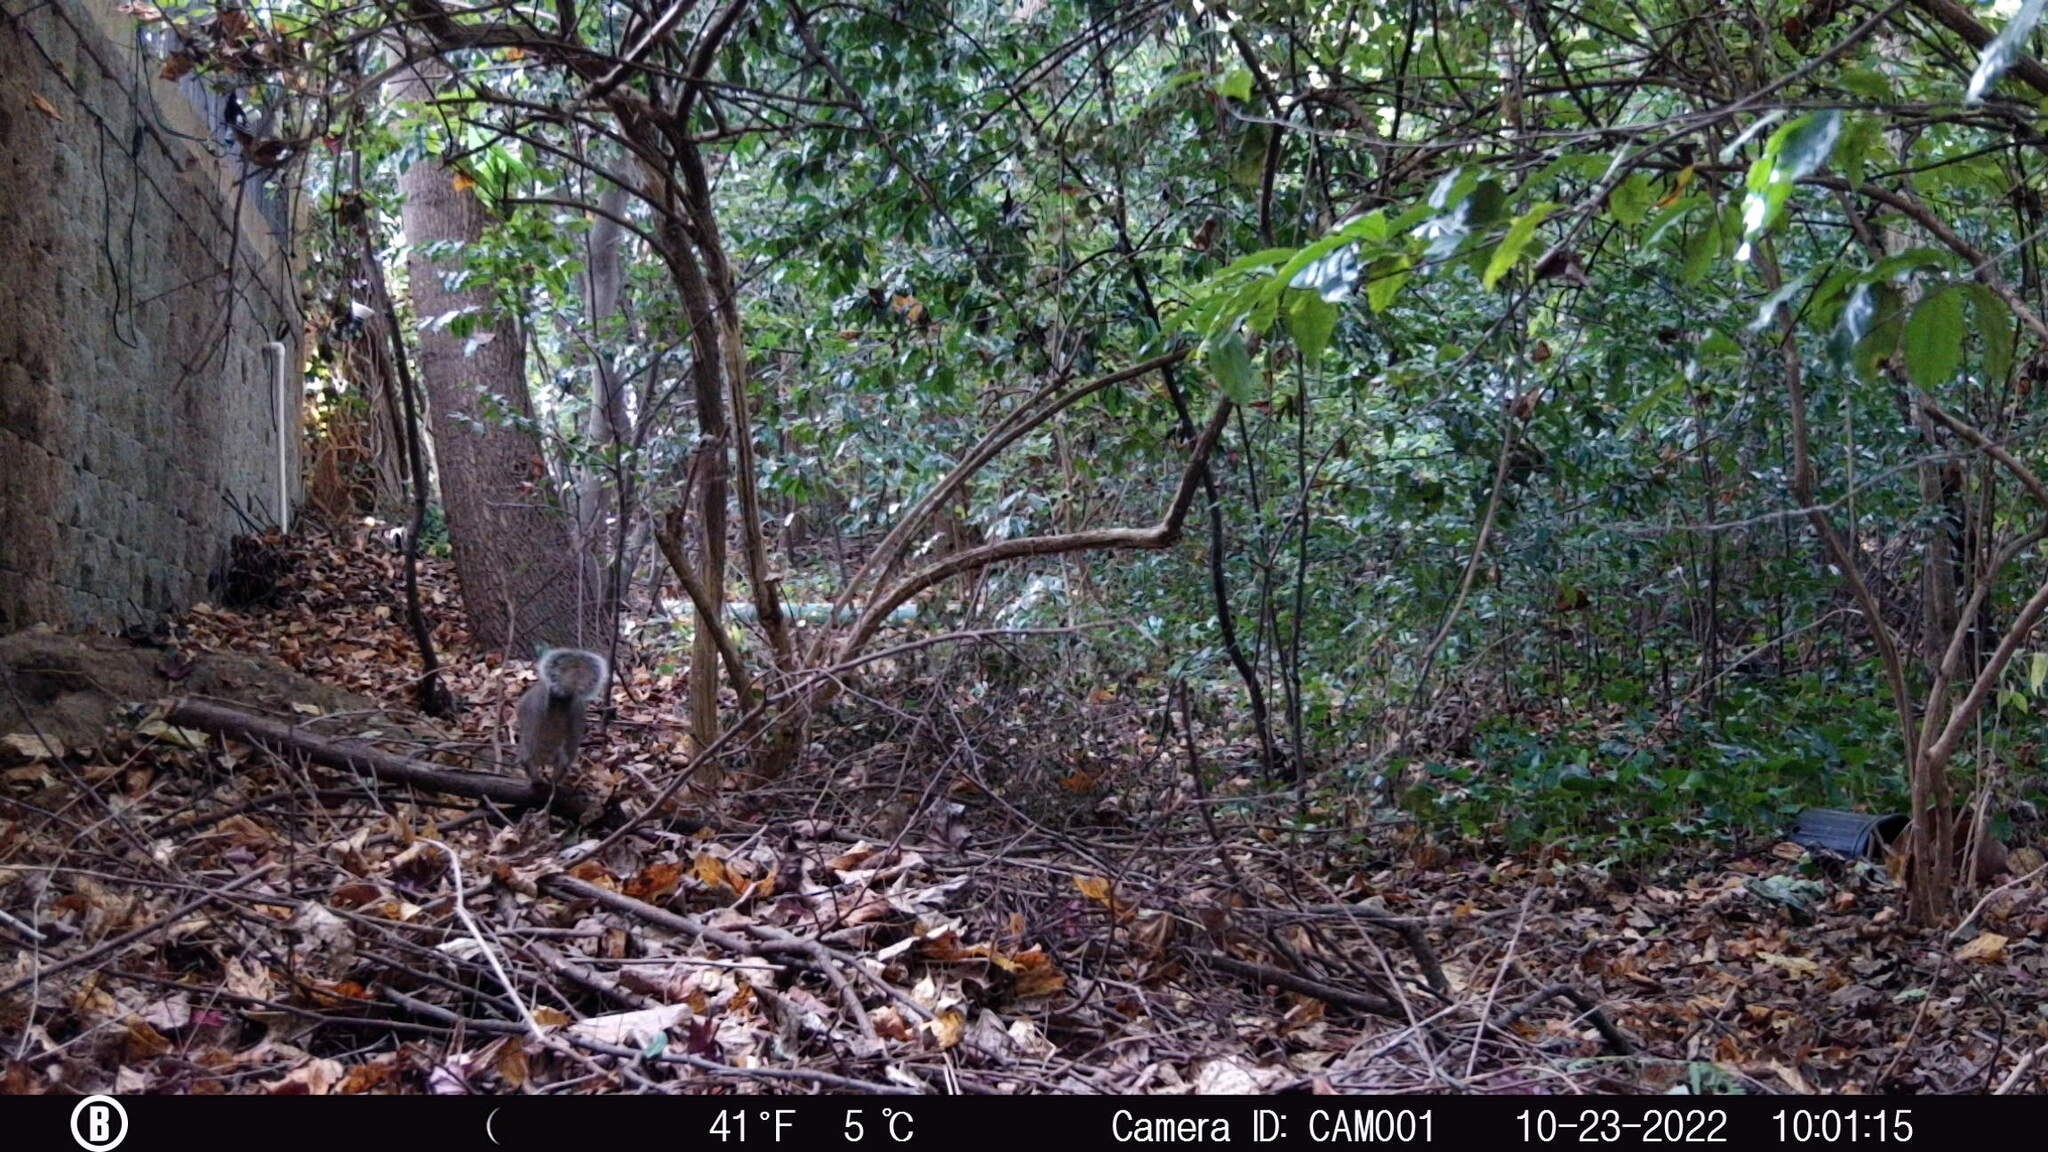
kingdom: Animalia
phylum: Chordata
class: Mammalia
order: Rodentia
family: Sciuridae
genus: Sciurus
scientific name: Sciurus carolinensis
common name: Eastern gray squirrel
